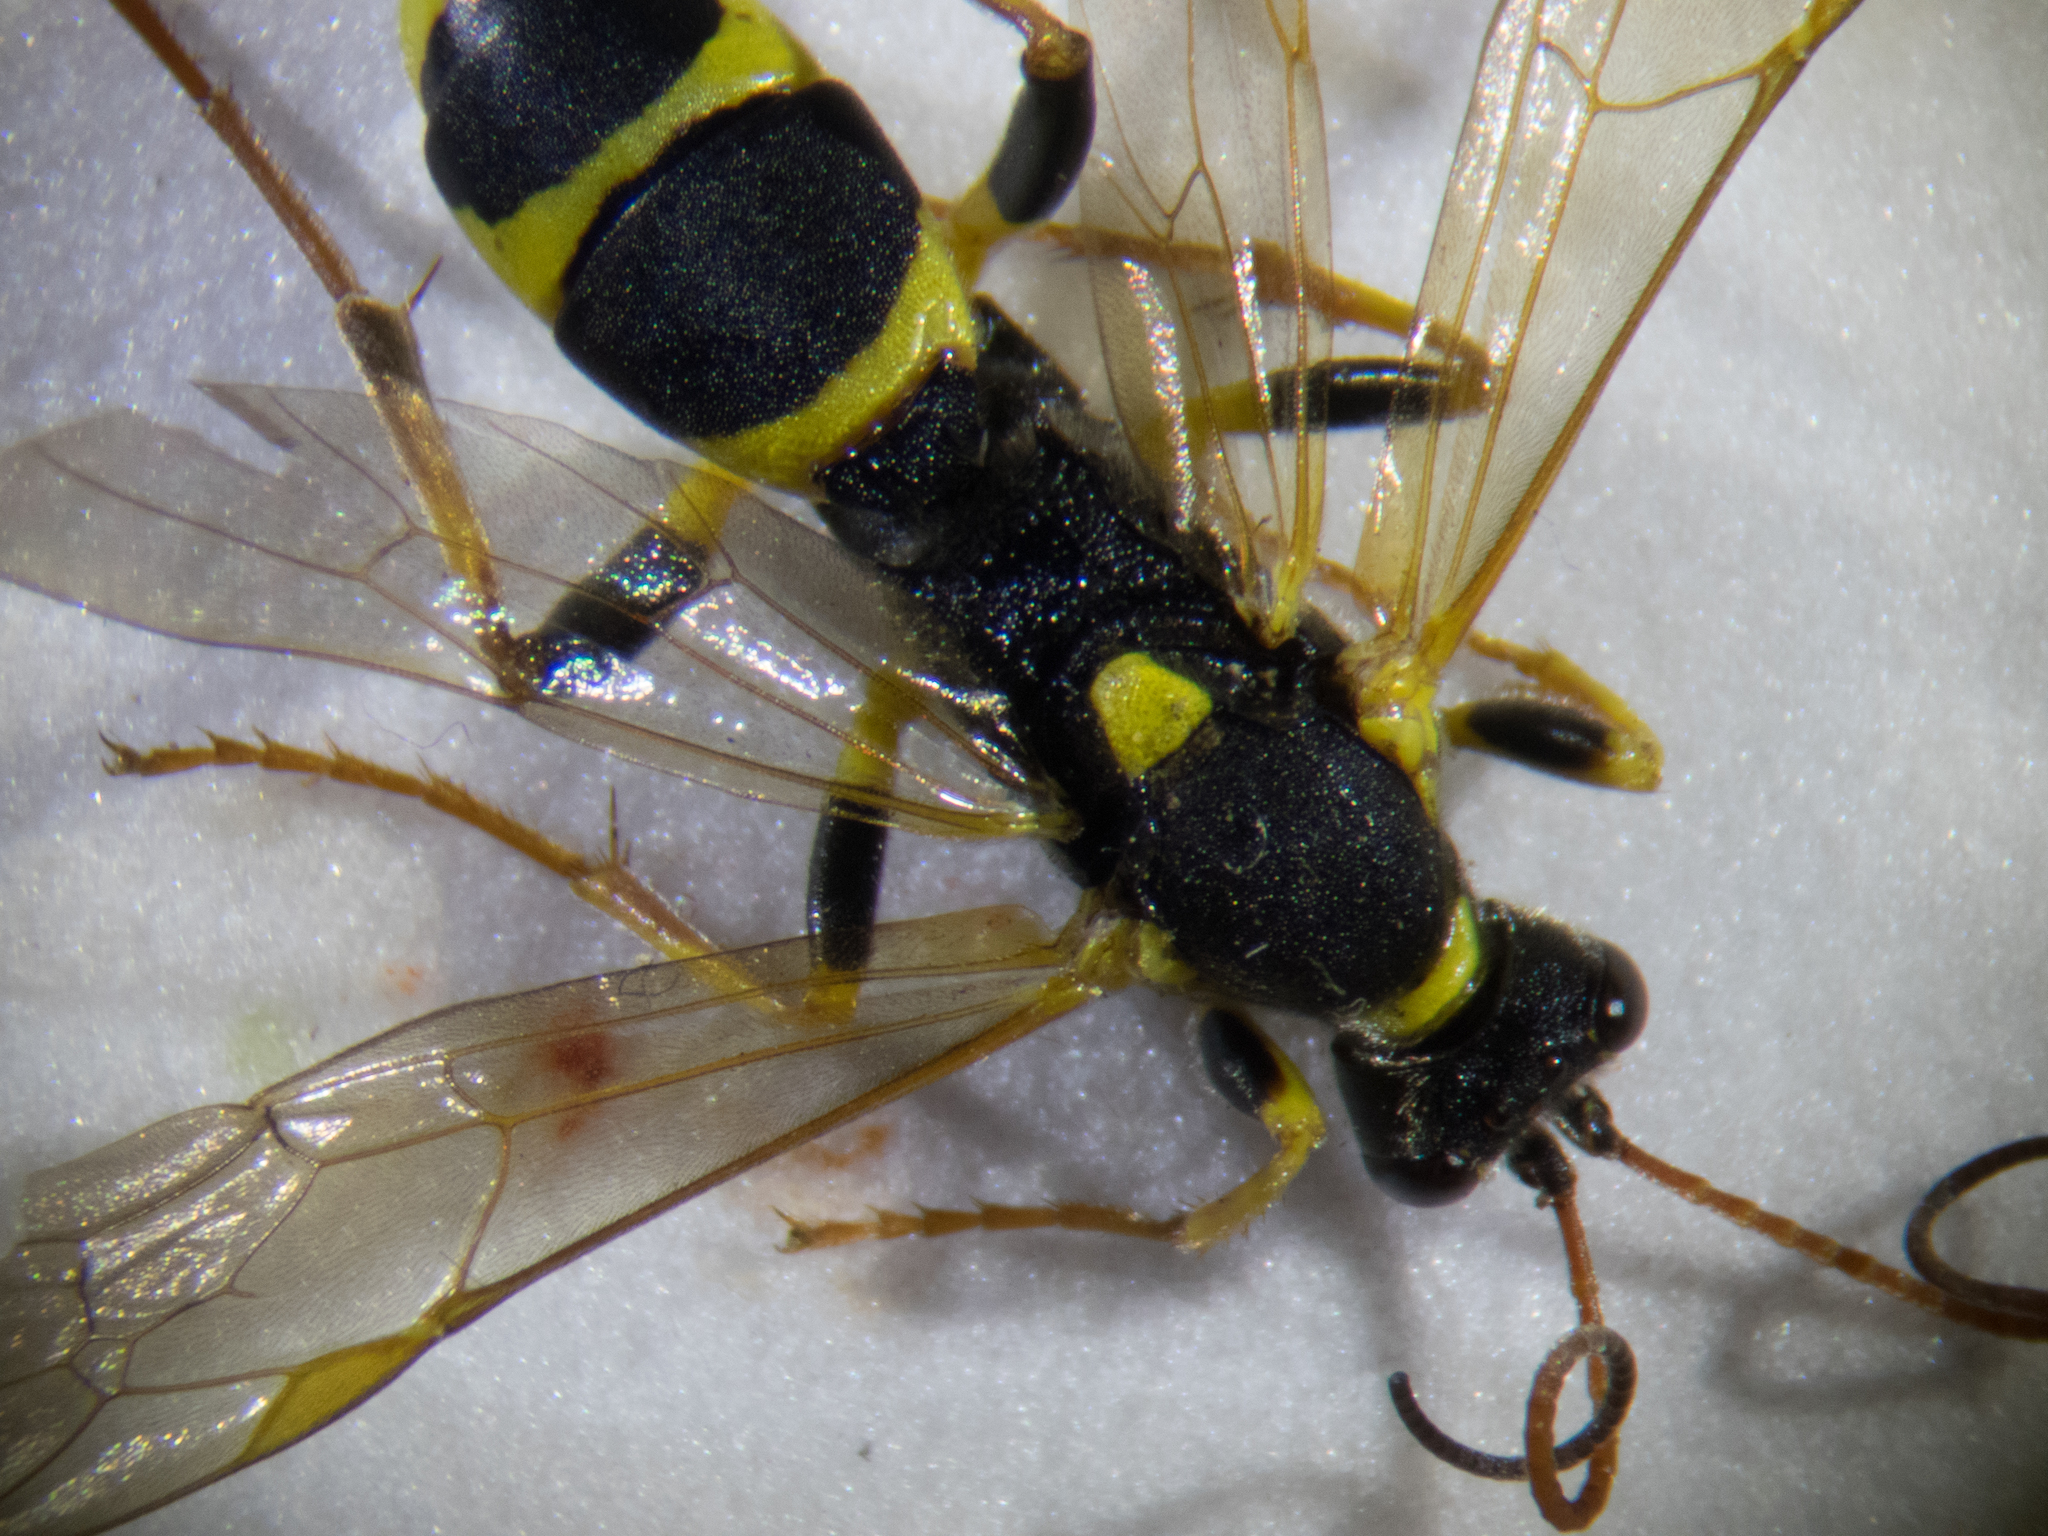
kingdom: Animalia
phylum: Arthropoda
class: Insecta
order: Hymenoptera
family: Ichneumonidae
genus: Amblyteles
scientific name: Amblyteles armatorius
